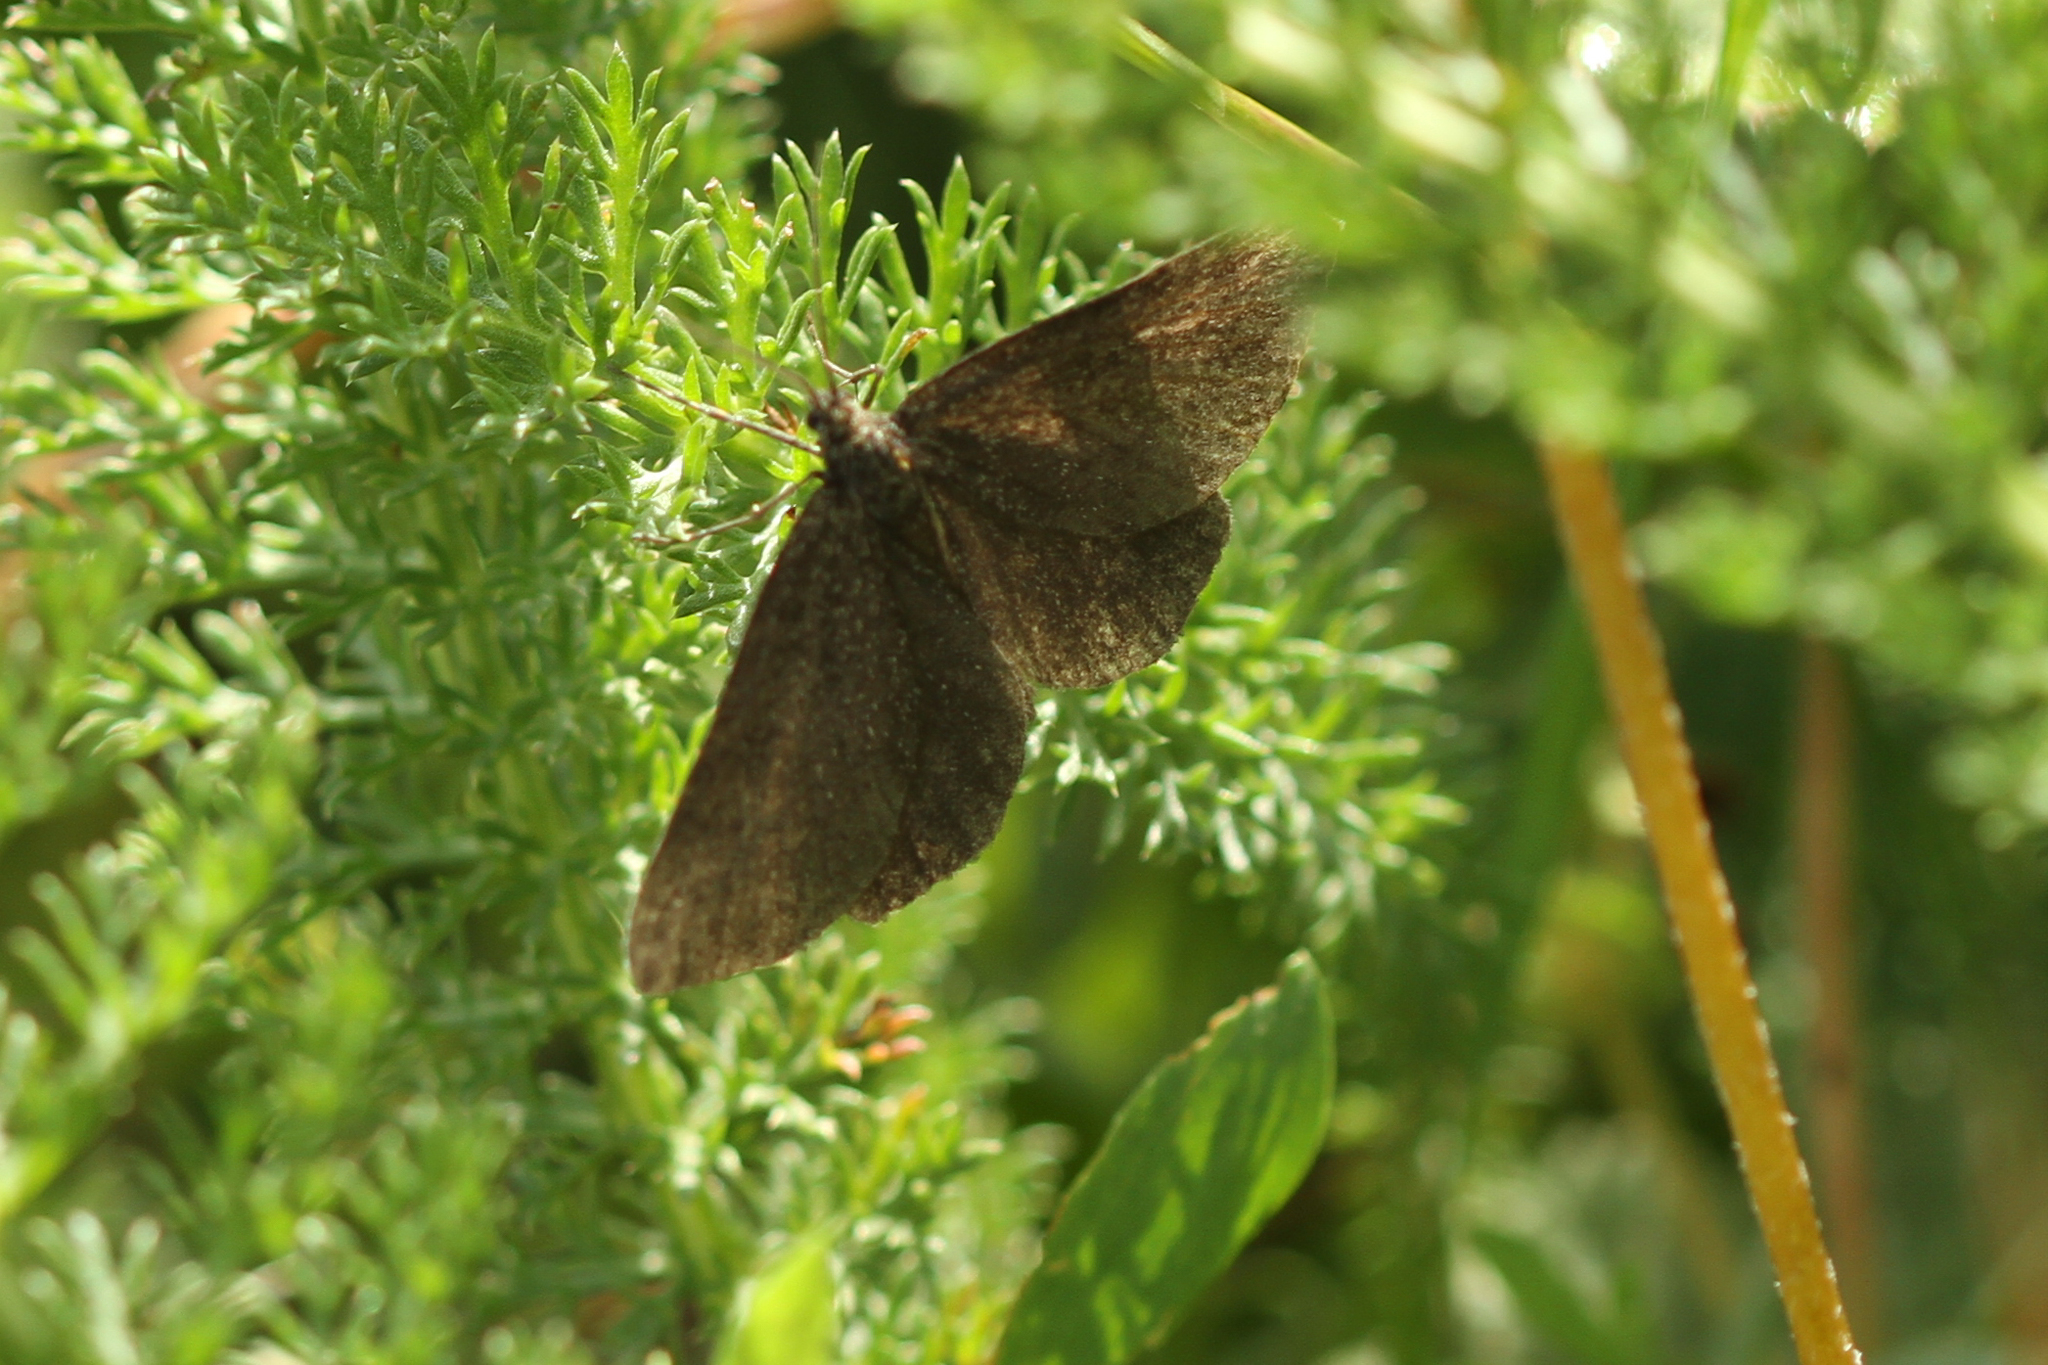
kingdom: Animalia
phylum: Arthropoda
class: Insecta
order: Lepidoptera
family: Geometridae
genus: Odezia
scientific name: Odezia atrata
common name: Chimney sweeper
